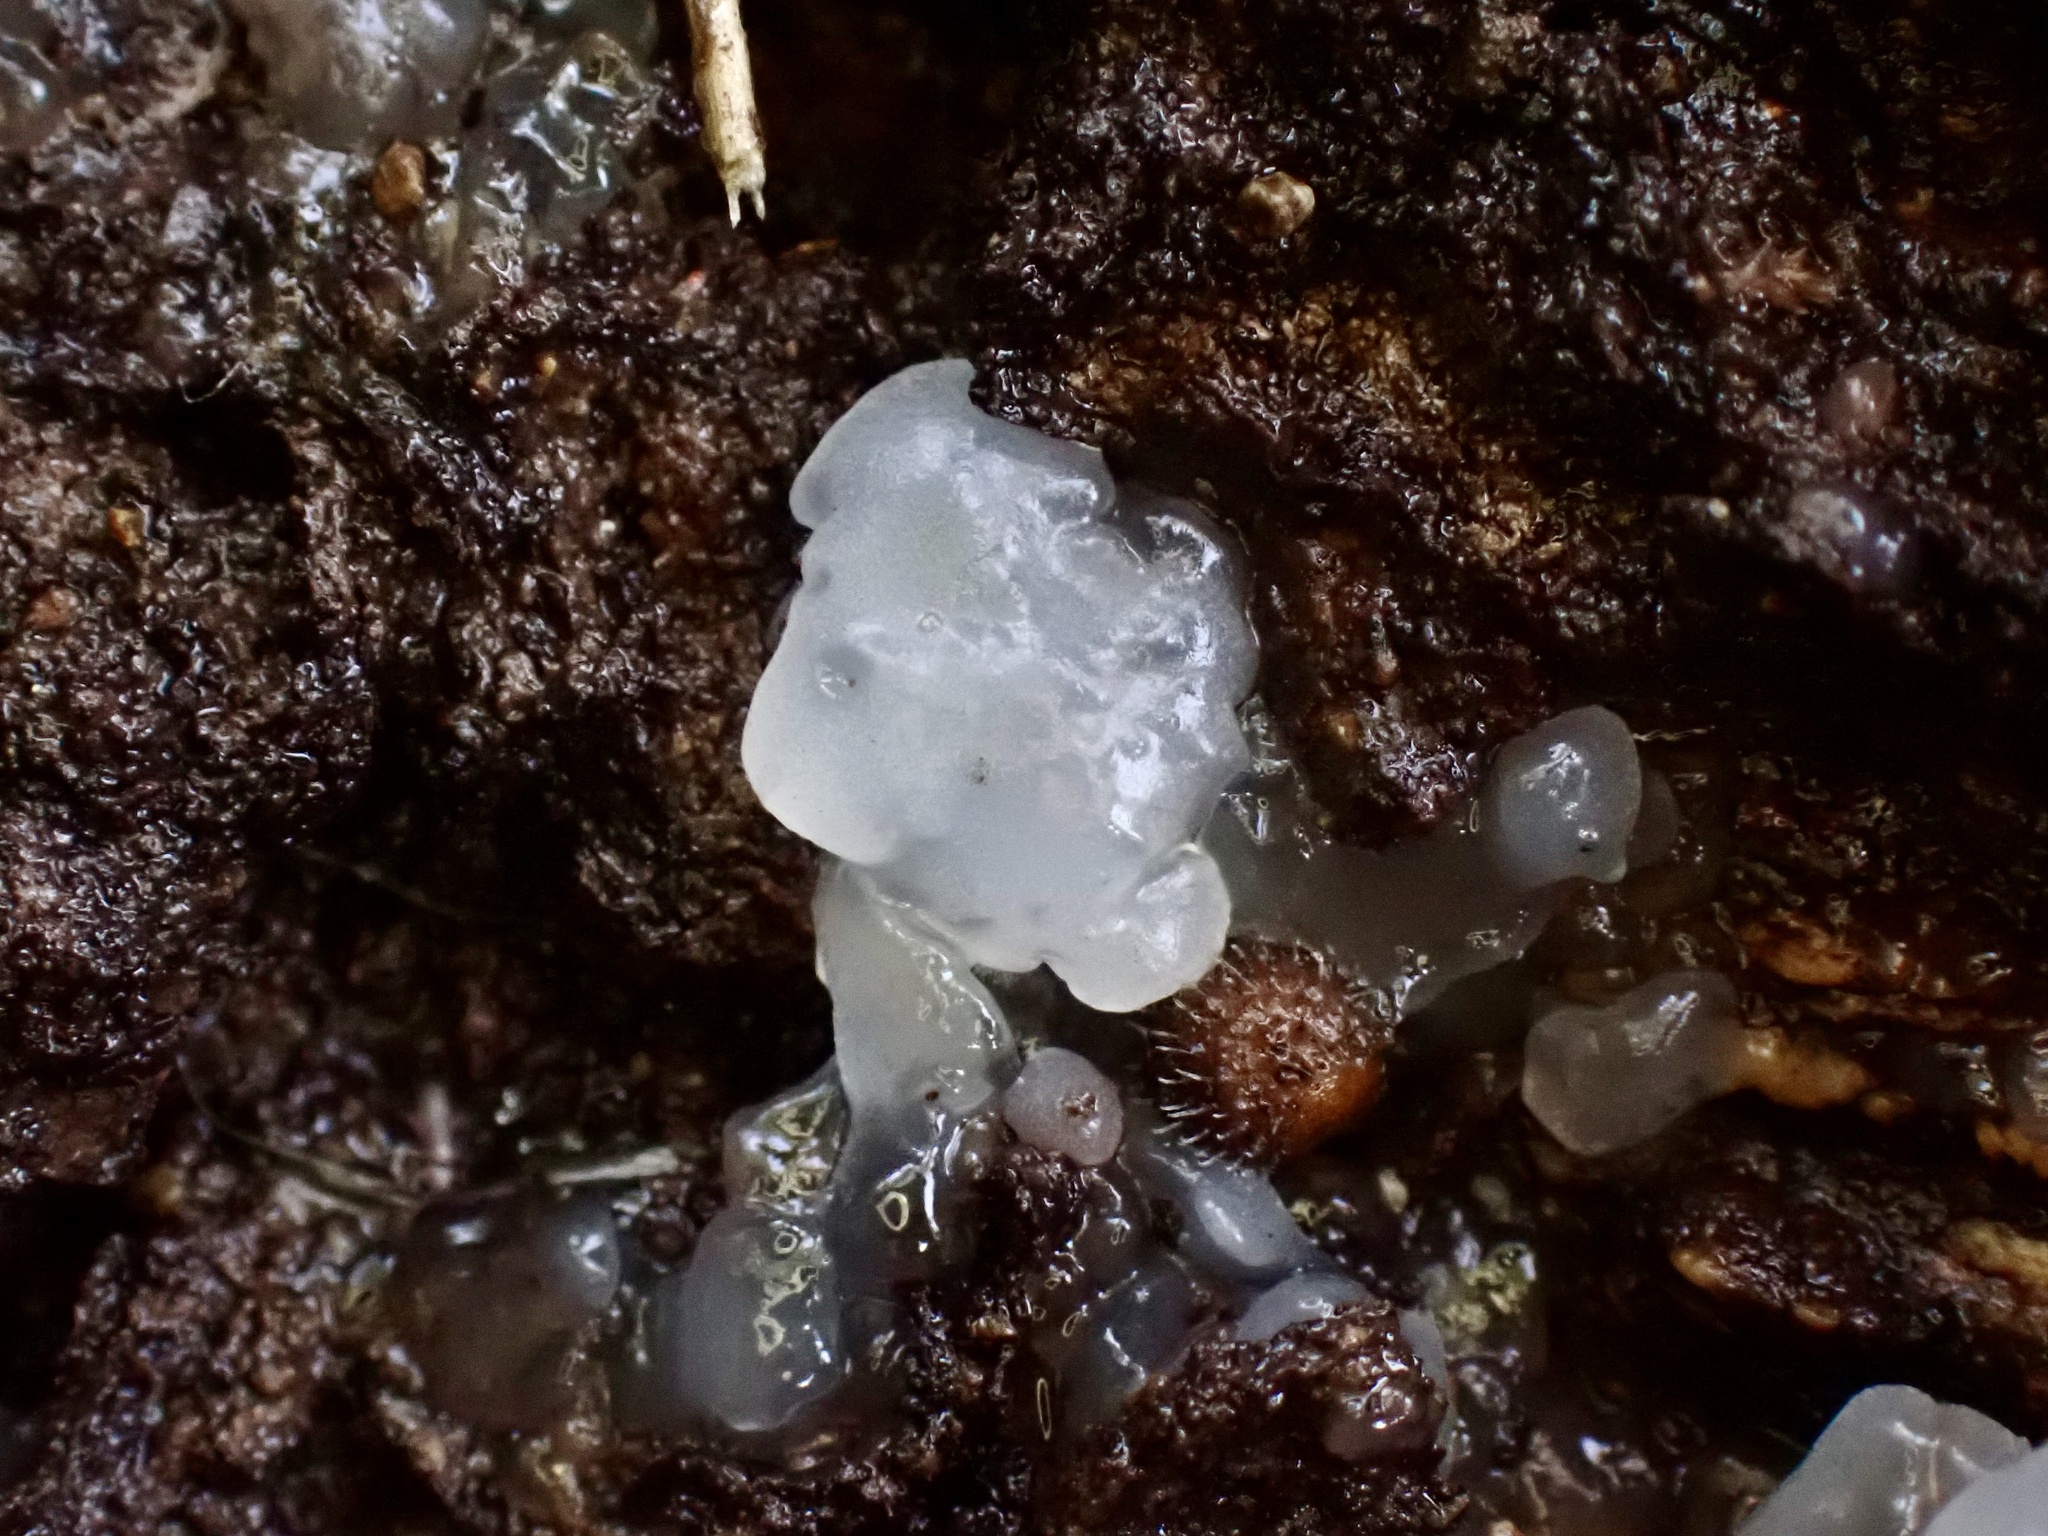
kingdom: Fungi
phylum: Basidiomycota
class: Agaricomycetes
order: Auriculariales
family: Hyaloriaceae
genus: Myxarium
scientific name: Myxarium nucleatum
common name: Crystal brain fungus
